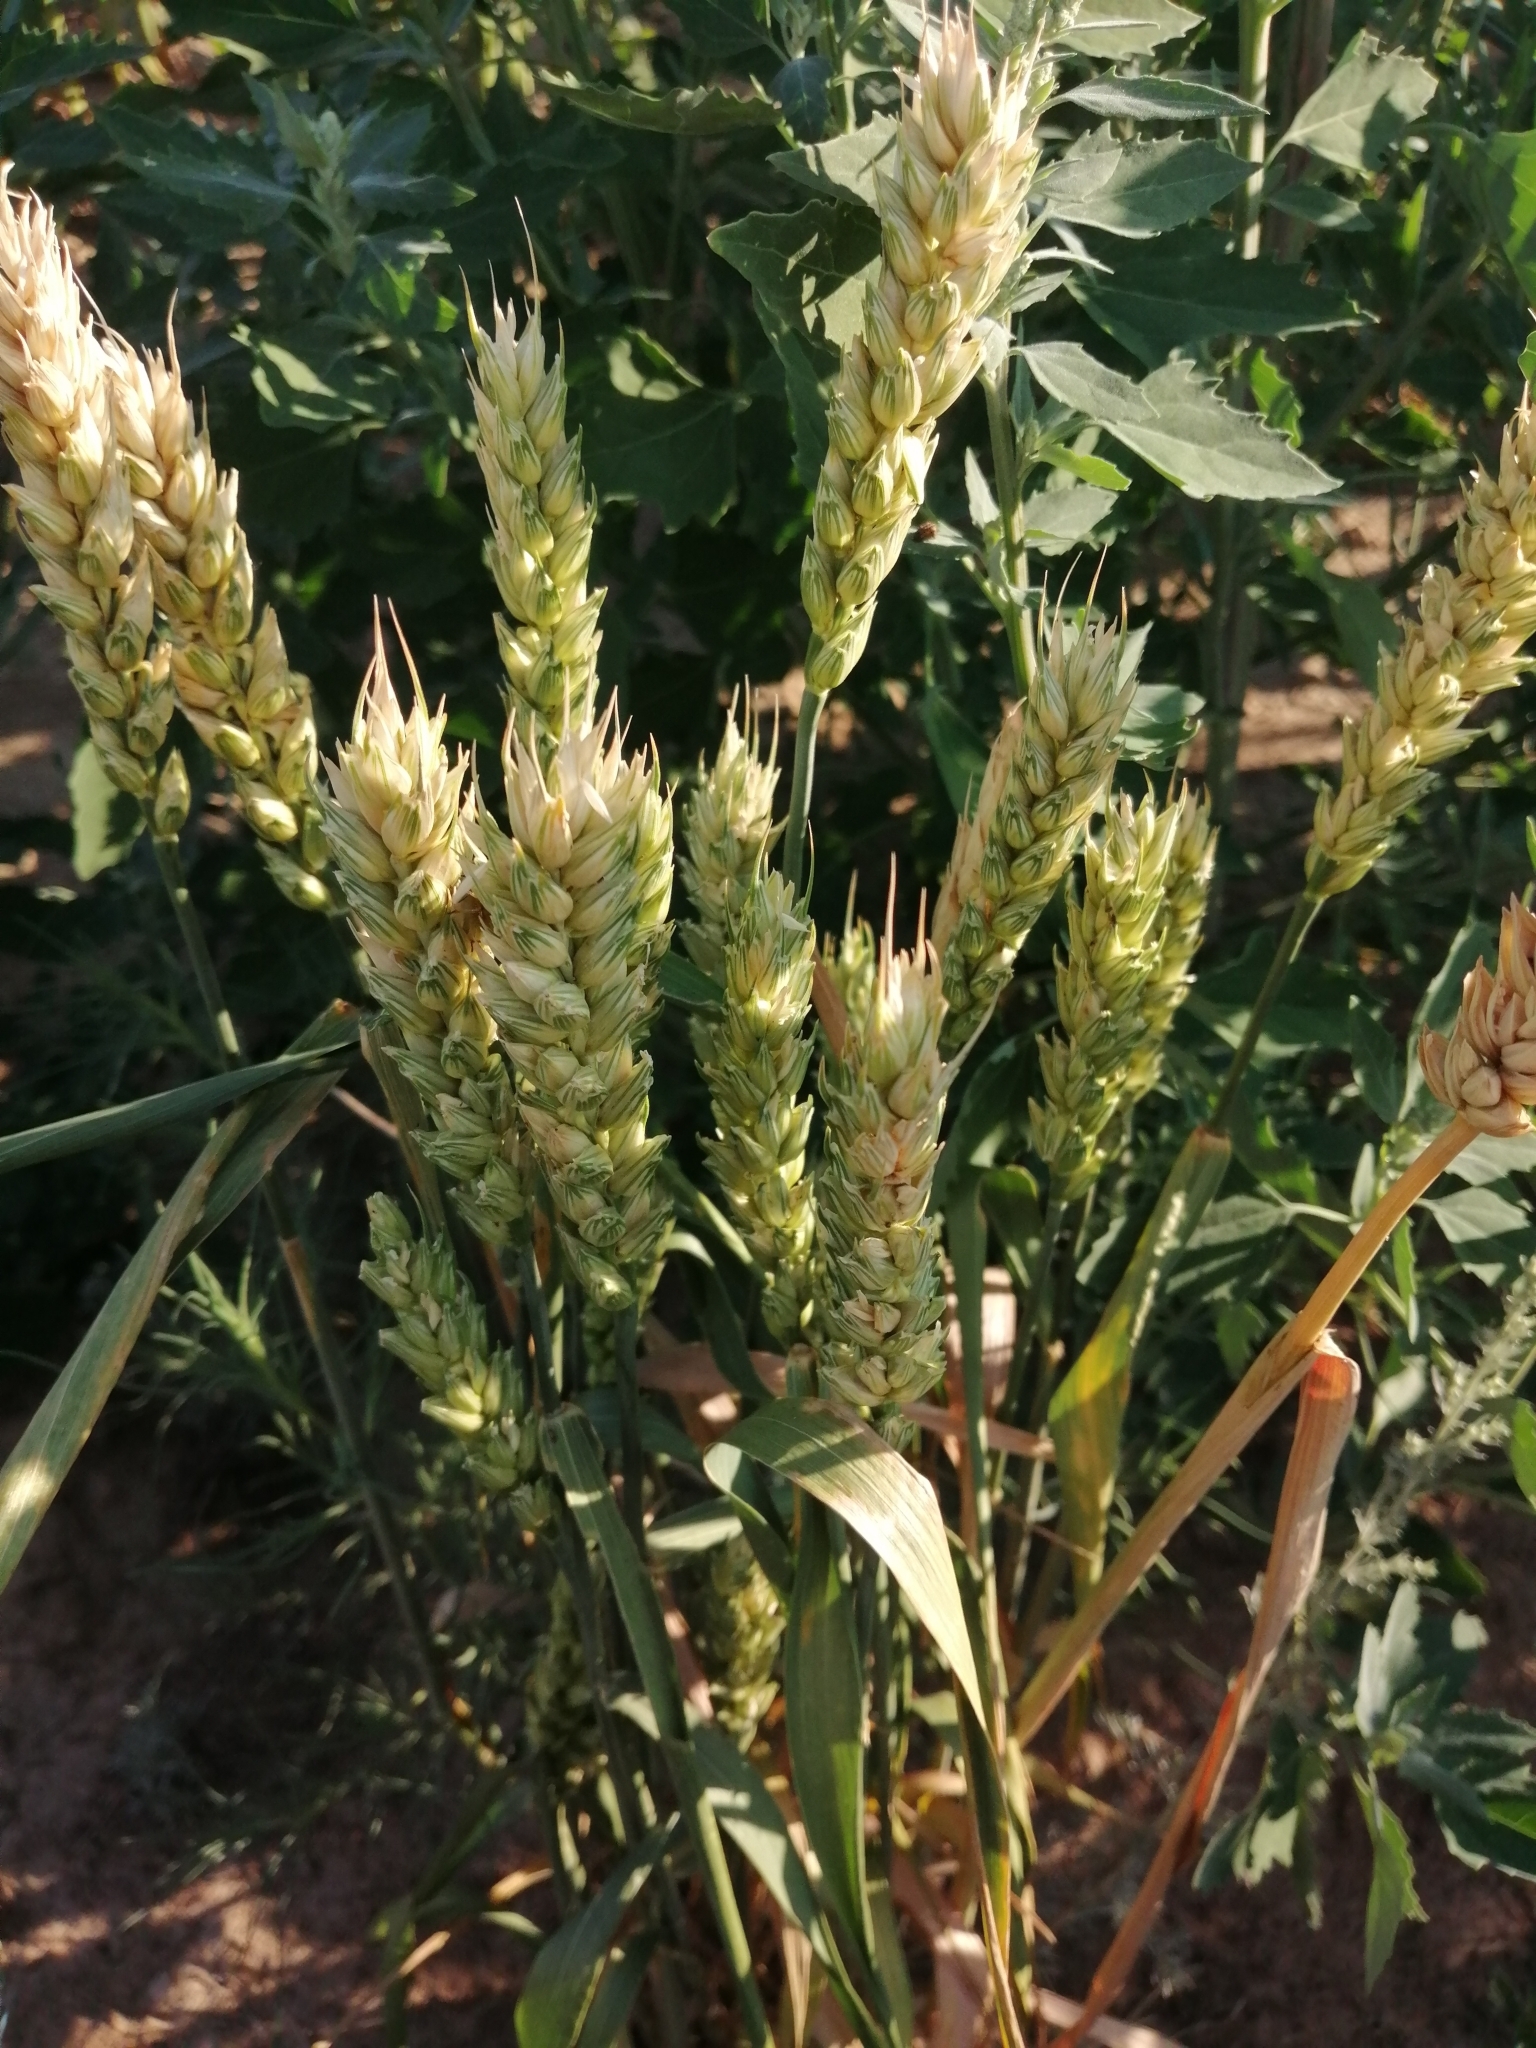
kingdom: Plantae
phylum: Tracheophyta
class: Liliopsida
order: Poales
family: Poaceae
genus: Triticum
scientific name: Triticum aestivum
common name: Common wheat
